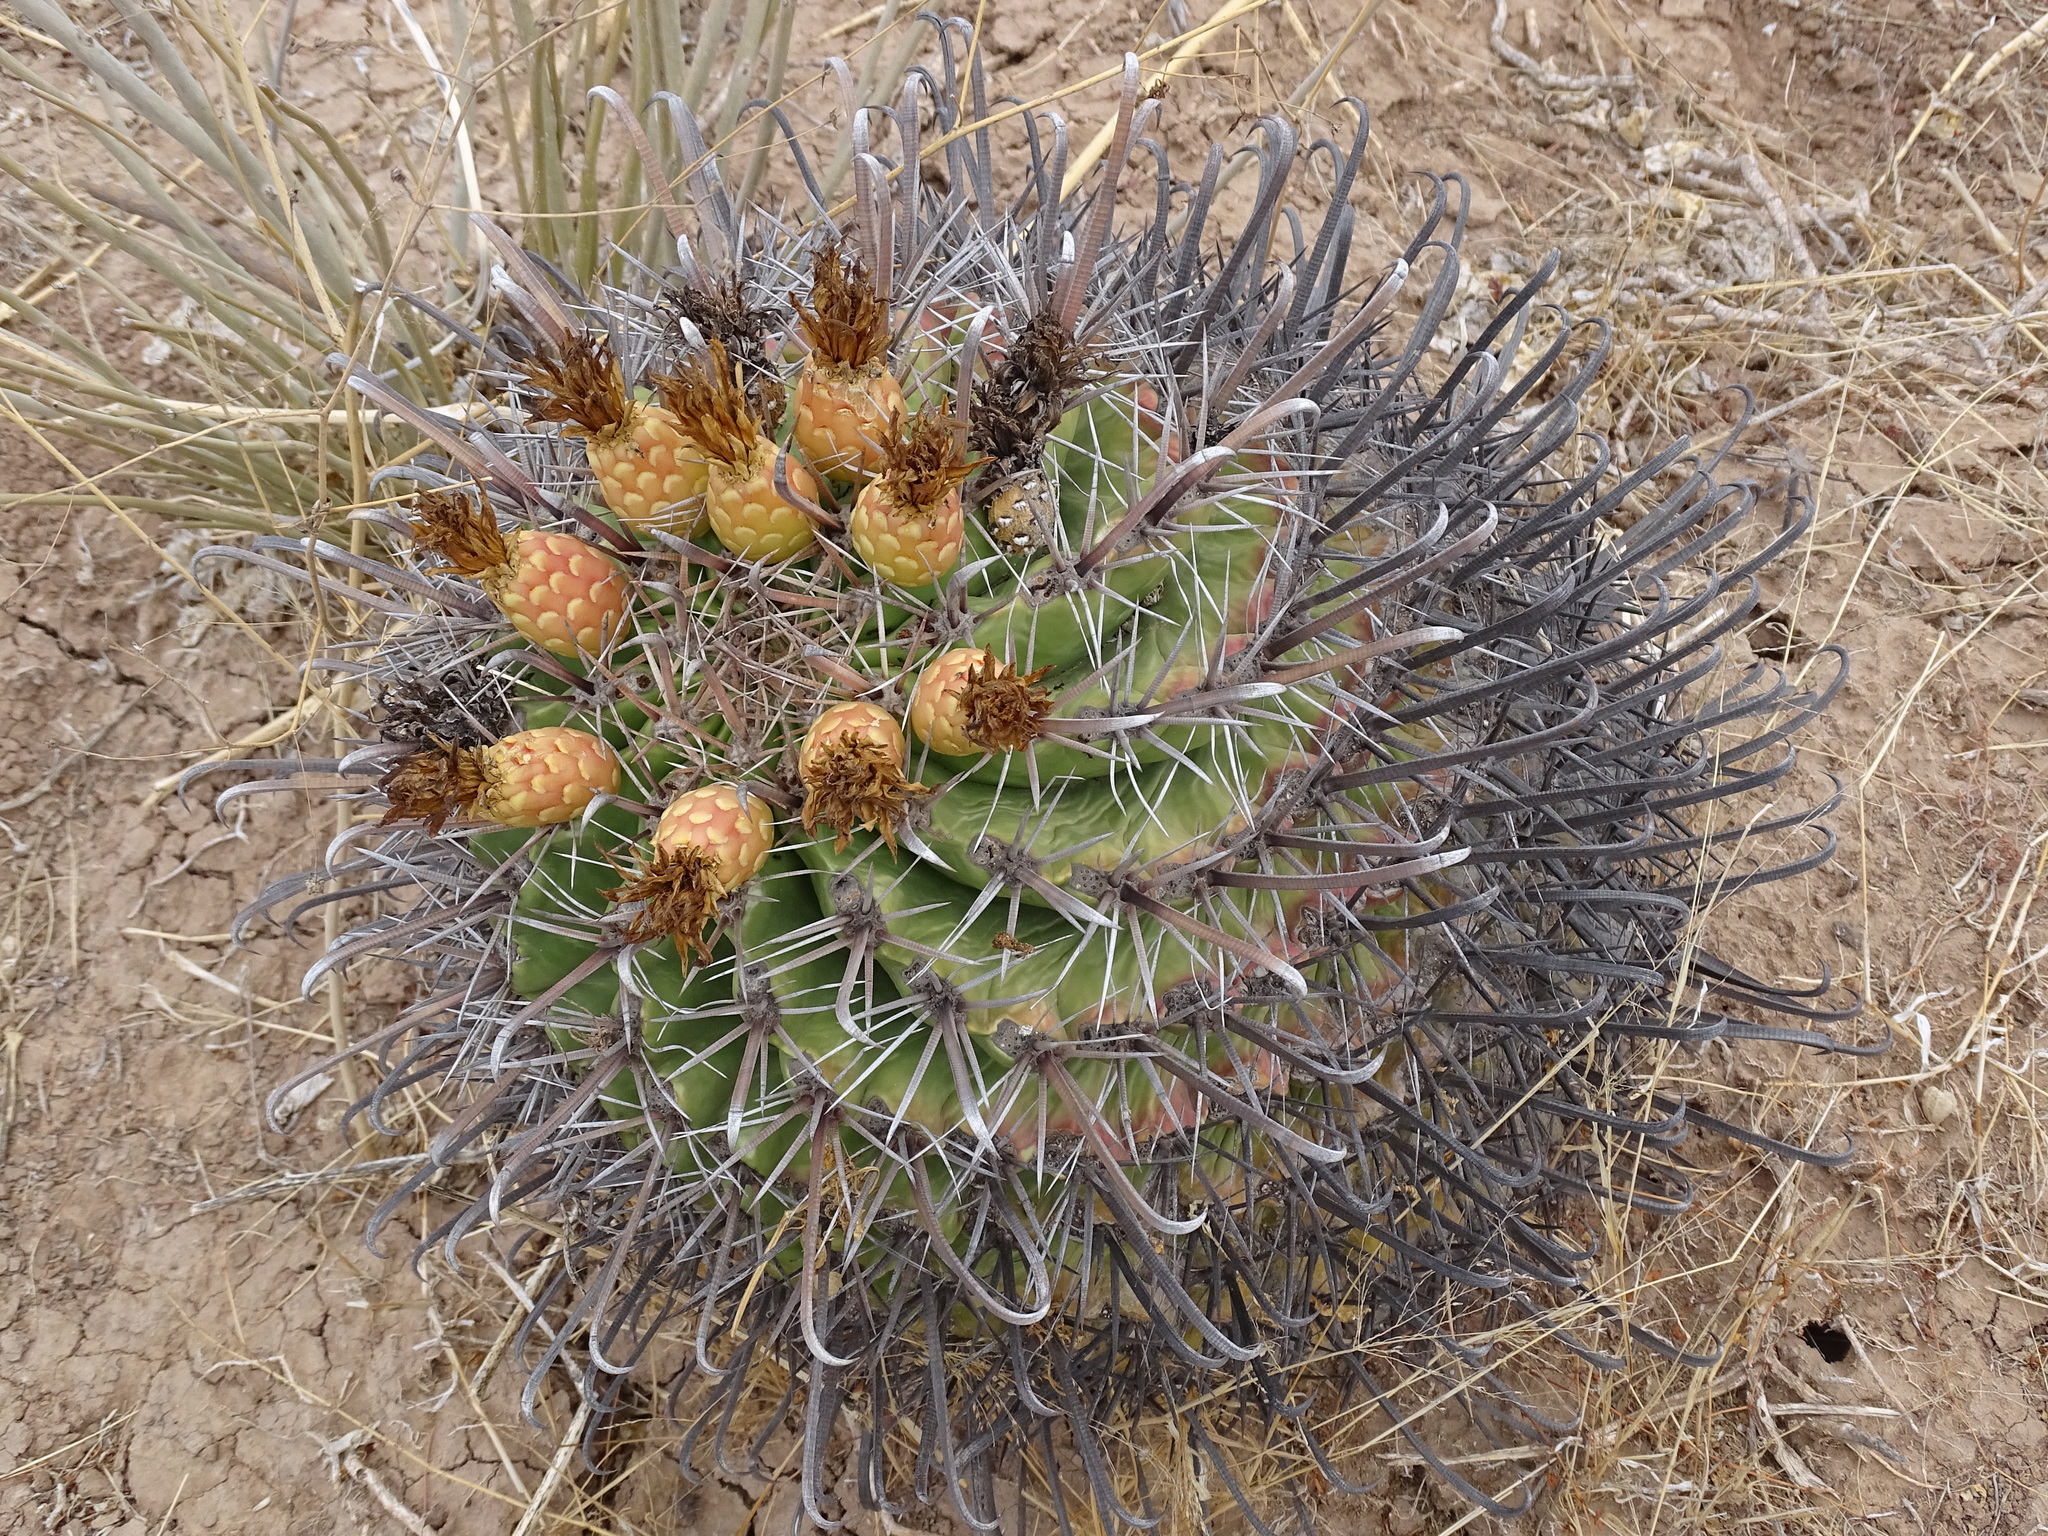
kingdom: Plantae
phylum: Tracheophyta
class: Magnoliopsida
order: Caryophyllales
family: Cactaceae
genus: Ferocactus
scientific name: Ferocactus wislizeni
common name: Candy barrel cactus
